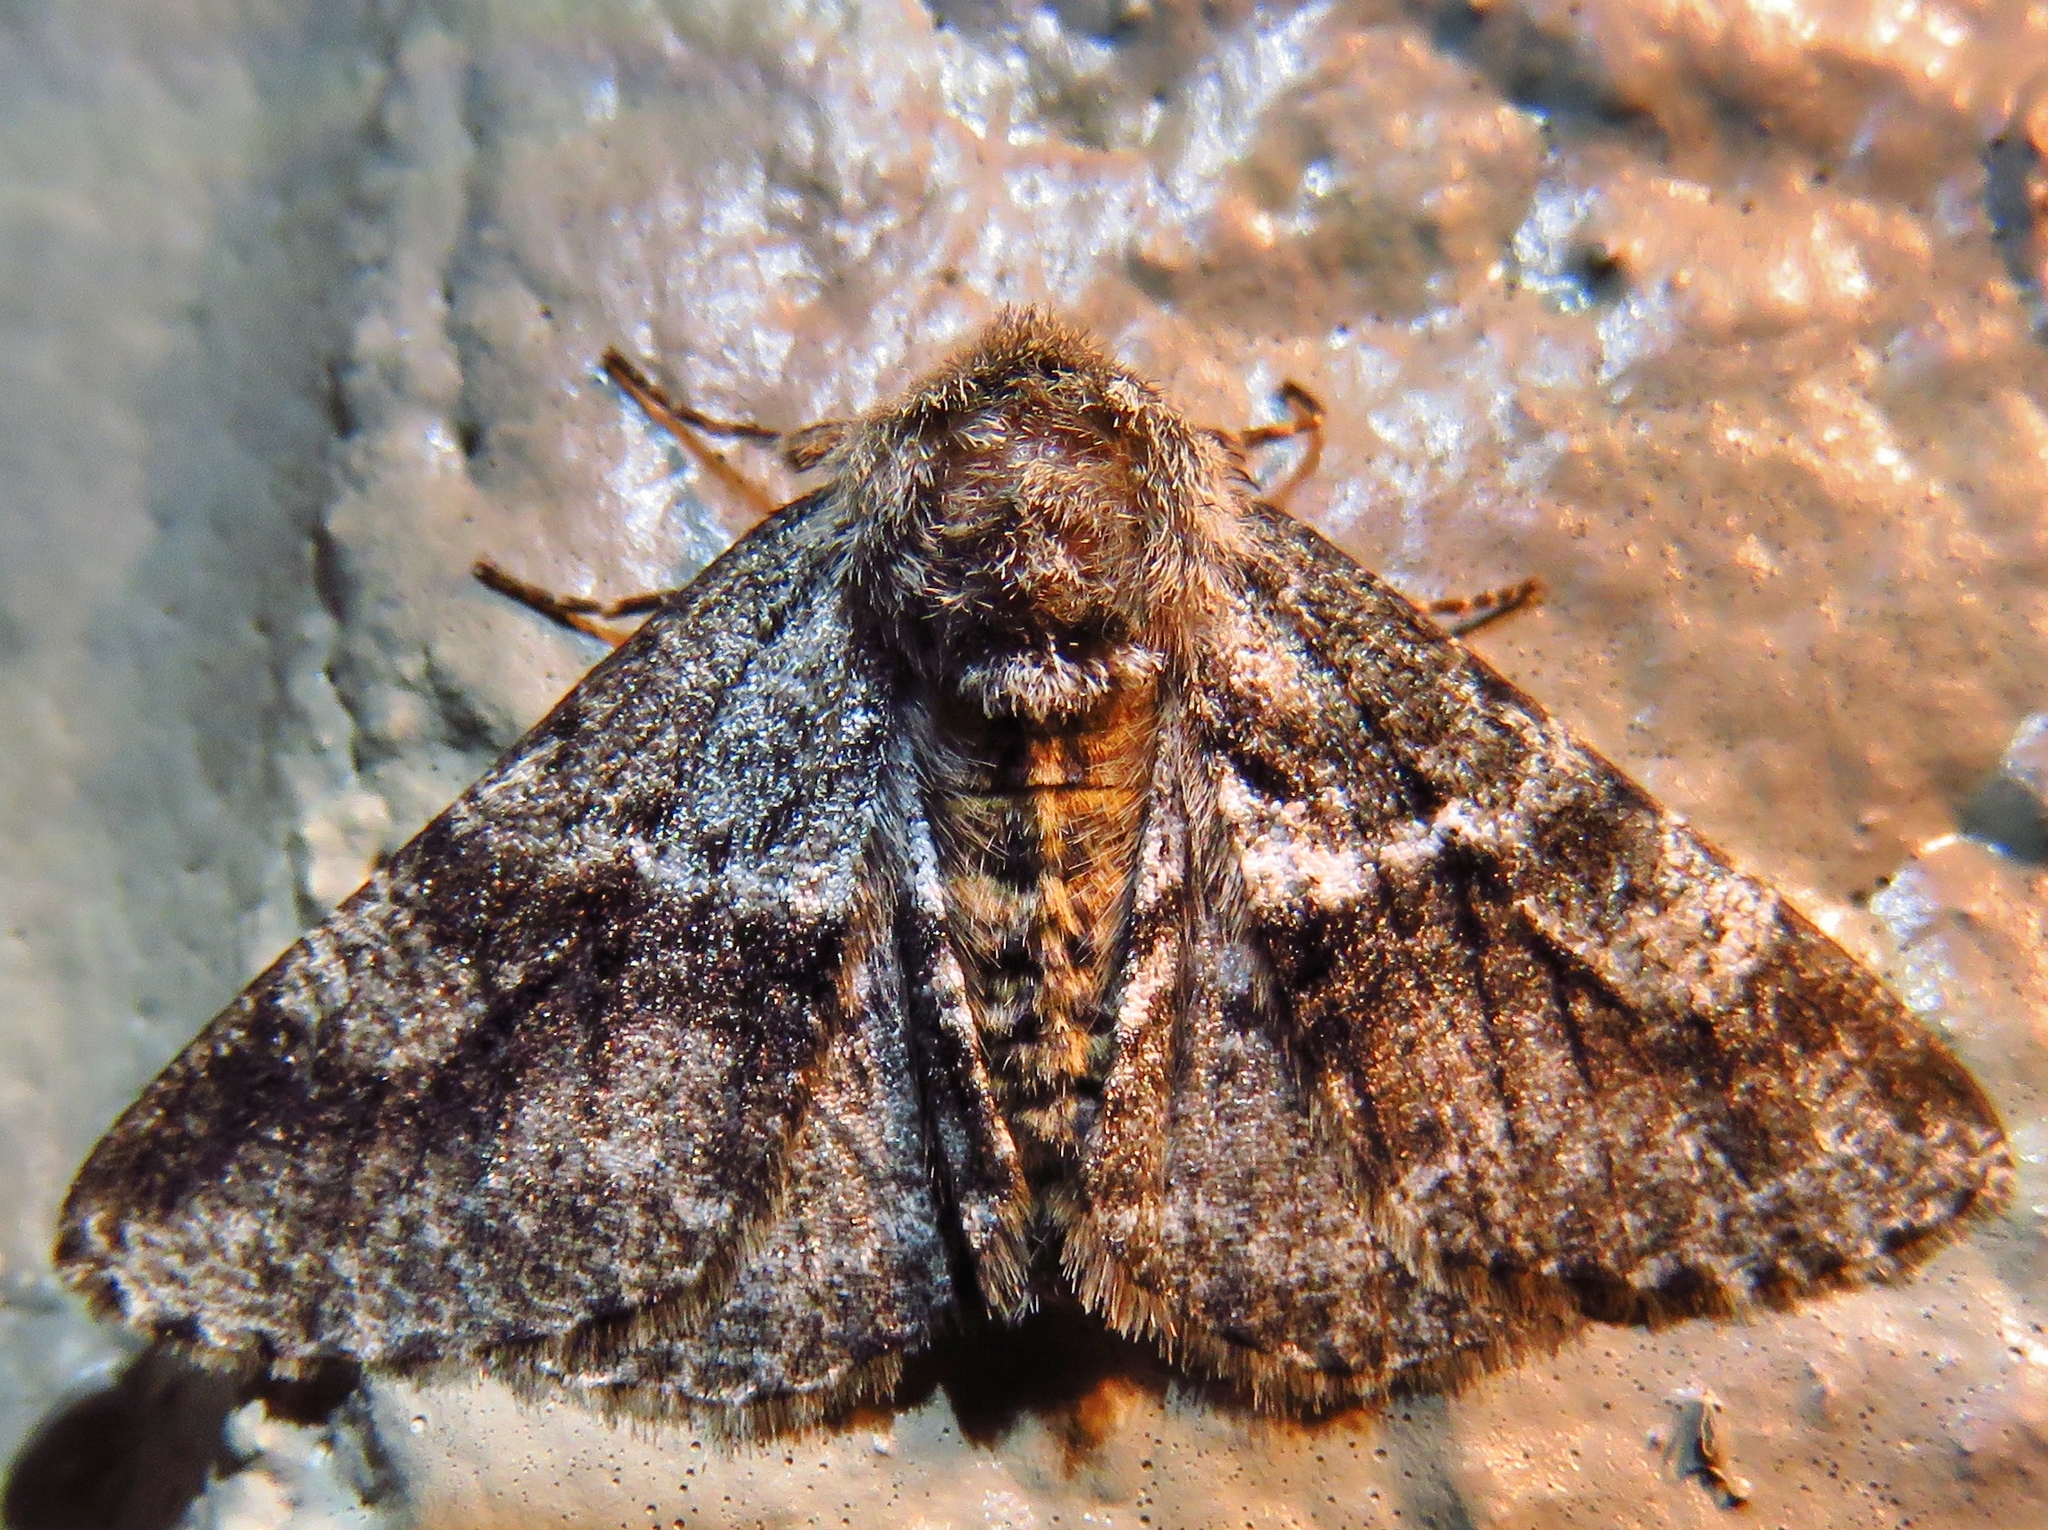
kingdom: Animalia
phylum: Arthropoda
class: Insecta
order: Lepidoptera
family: Geometridae
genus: Lycia
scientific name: Lycia ypsilon
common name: Wooly gray
